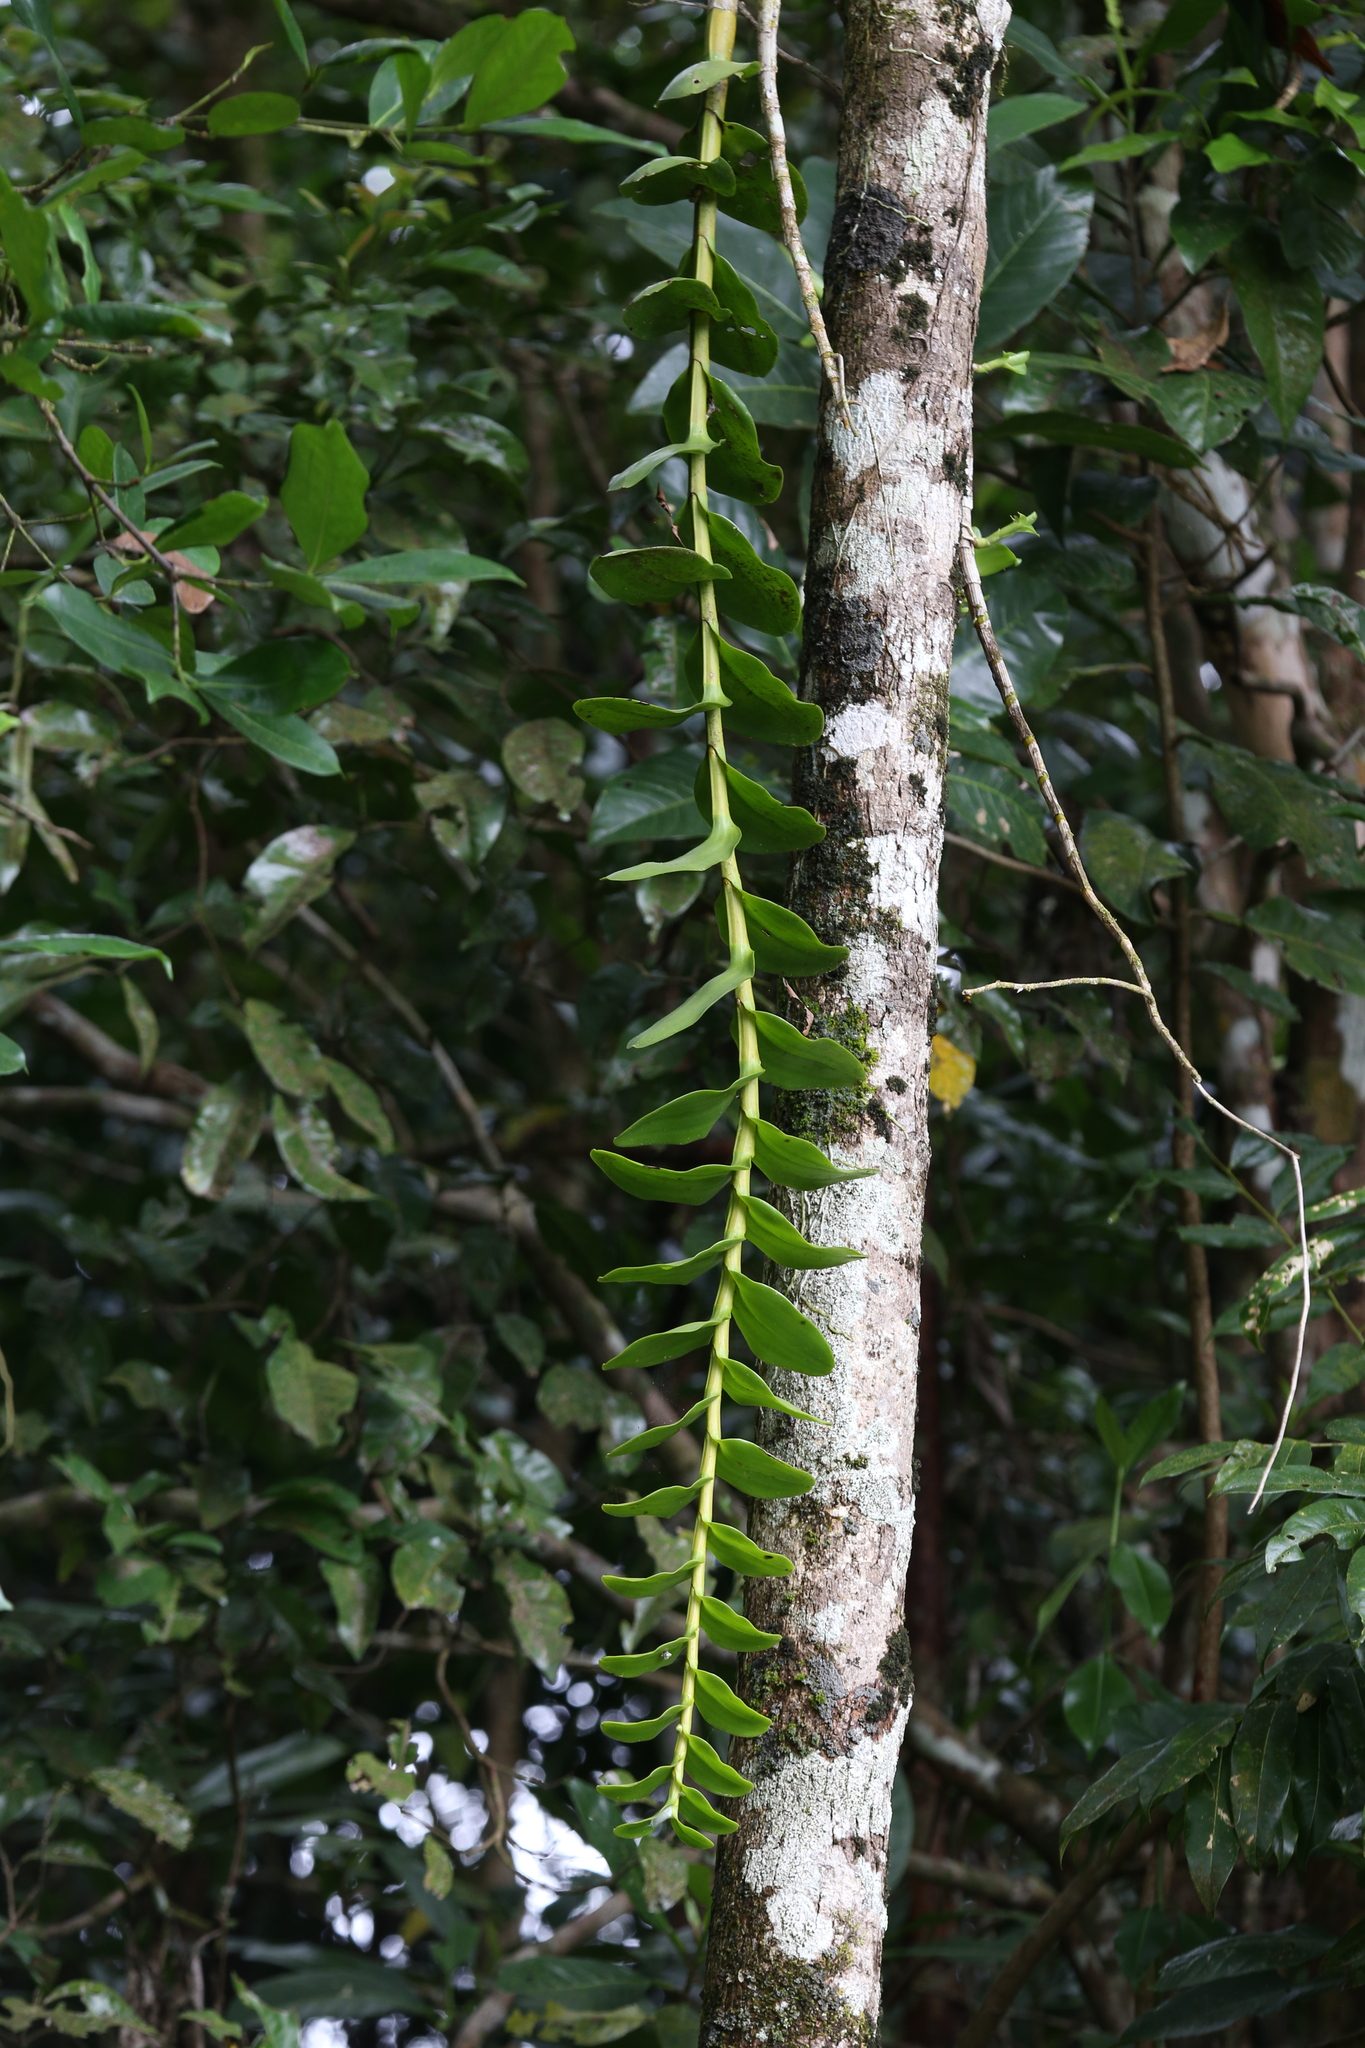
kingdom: Plantae
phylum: Tracheophyta
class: Liliopsida
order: Asparagales
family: Orchidaceae
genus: Dendrobium
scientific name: Dendrobium discolor
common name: Golden antler orchid
